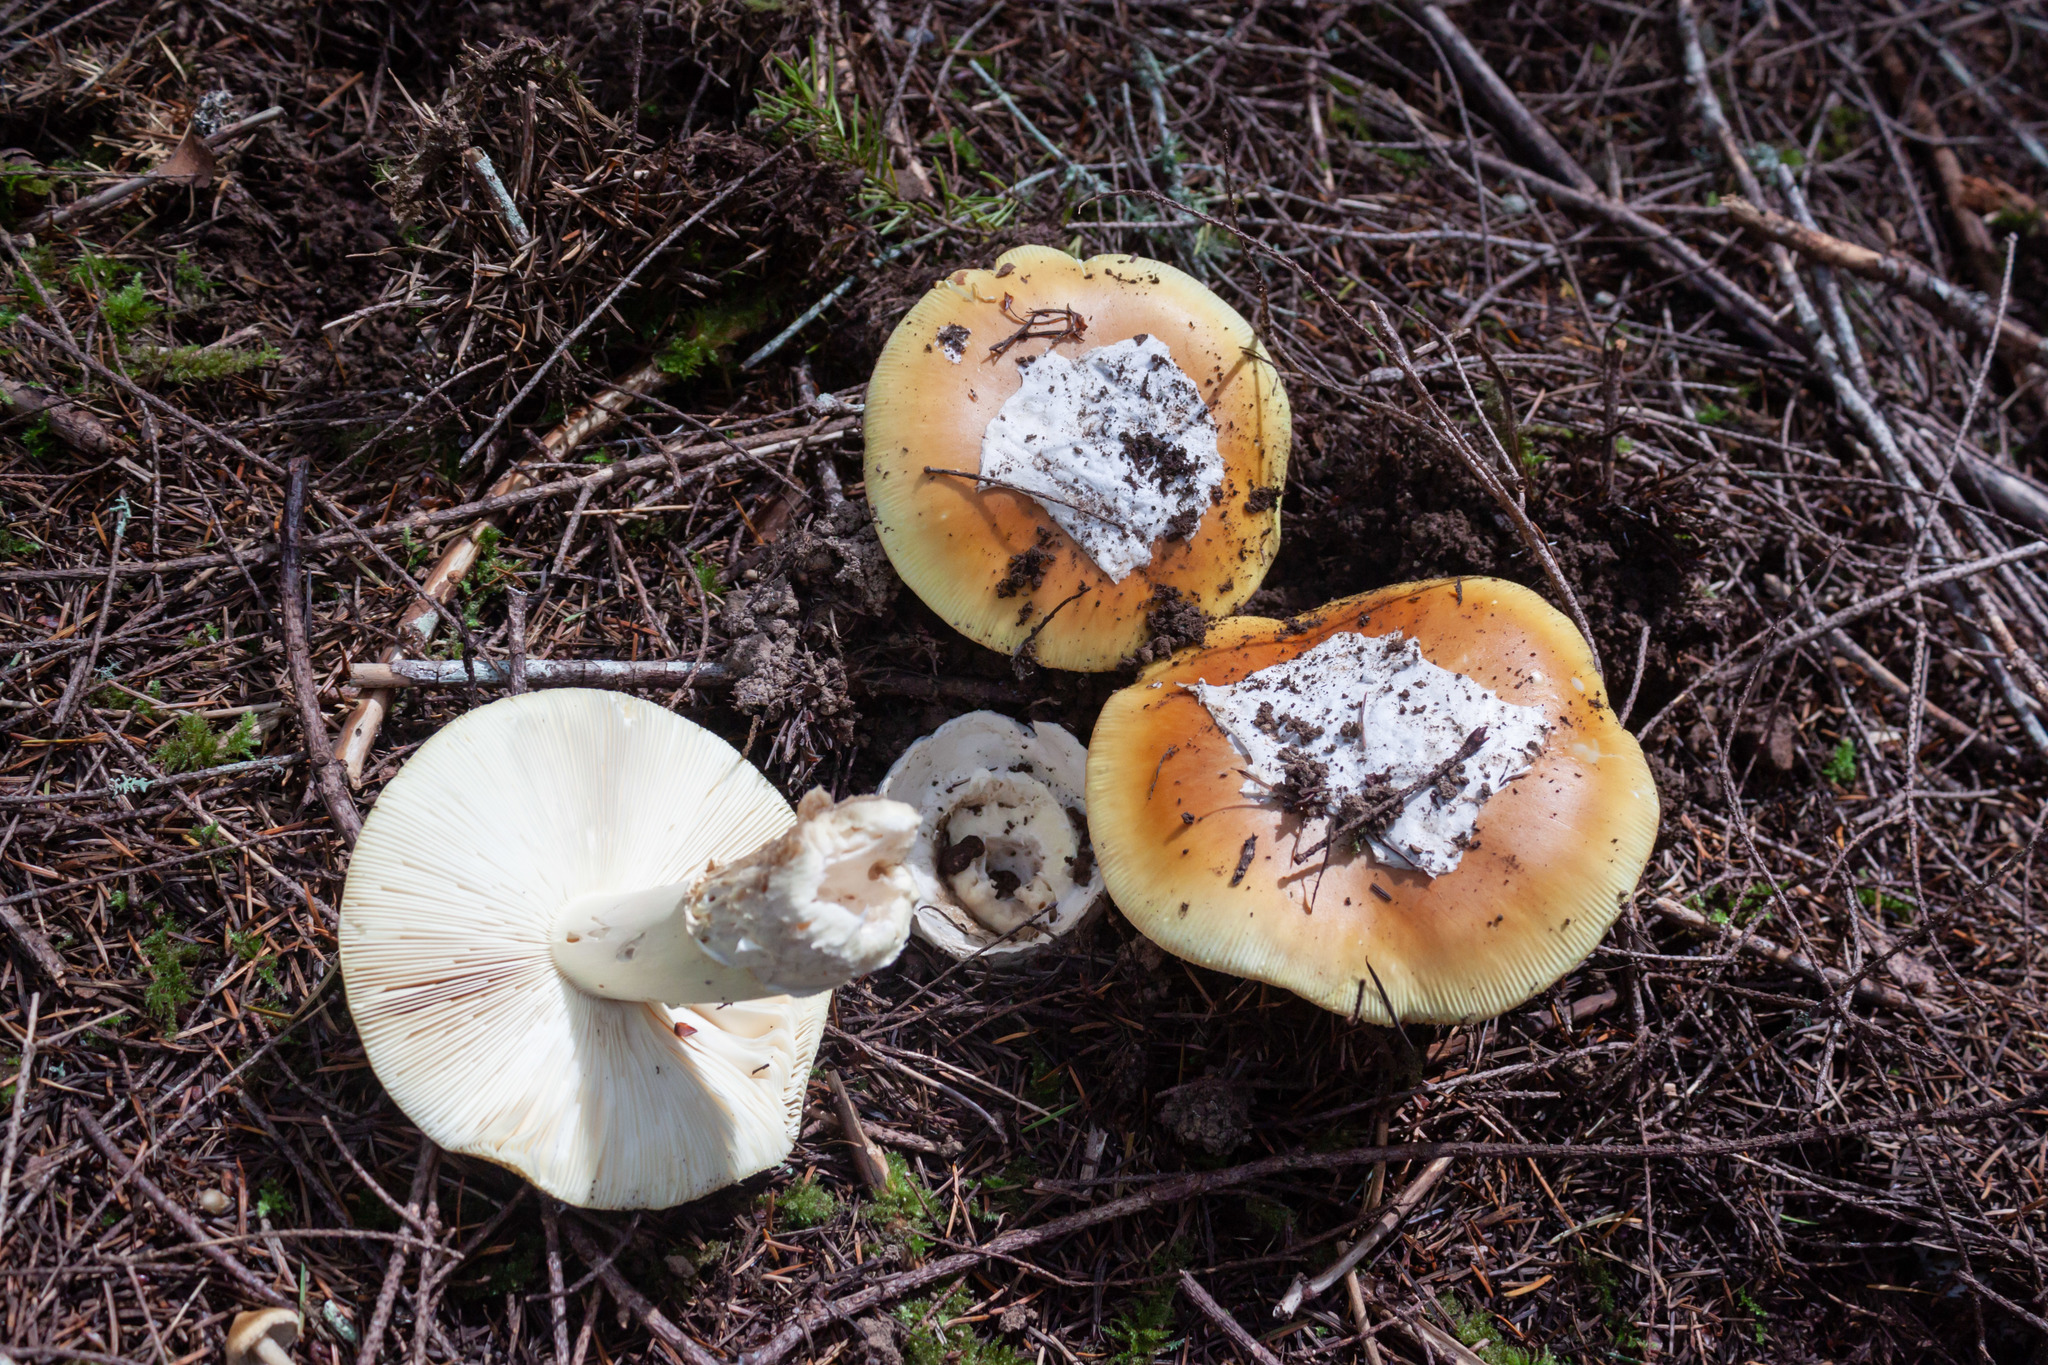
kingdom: Fungi
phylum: Basidiomycota
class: Agaricomycetes
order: Agaricales
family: Amanitaceae
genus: Amanita
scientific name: Amanita calyptroderma
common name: Coccora
